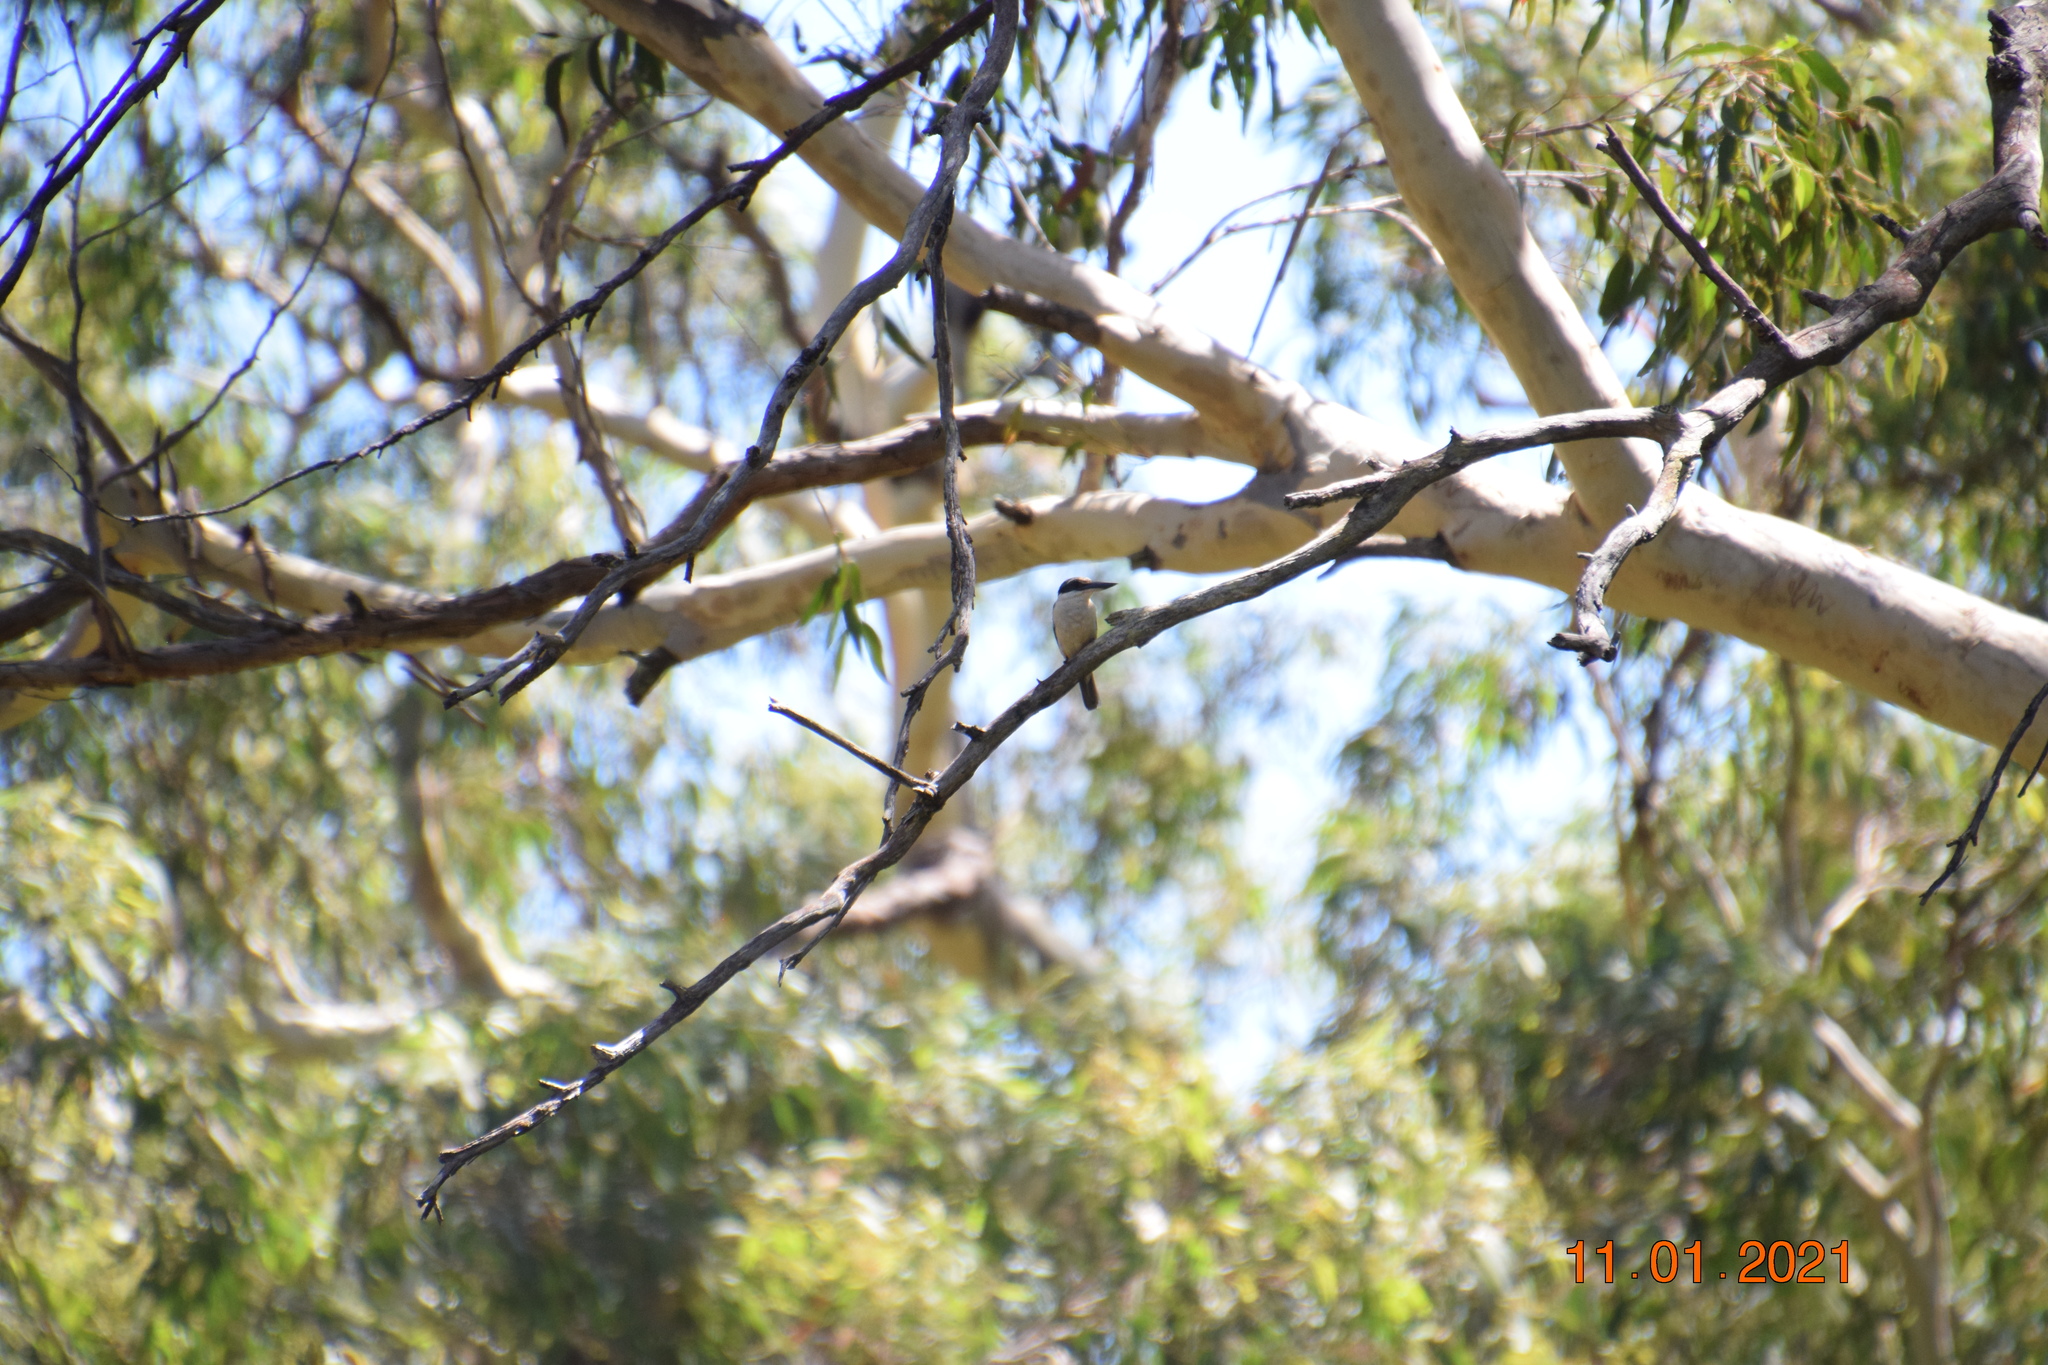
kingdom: Animalia
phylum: Chordata
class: Aves
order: Coraciiformes
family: Alcedinidae
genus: Todiramphus
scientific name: Todiramphus sanctus
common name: Sacred kingfisher
